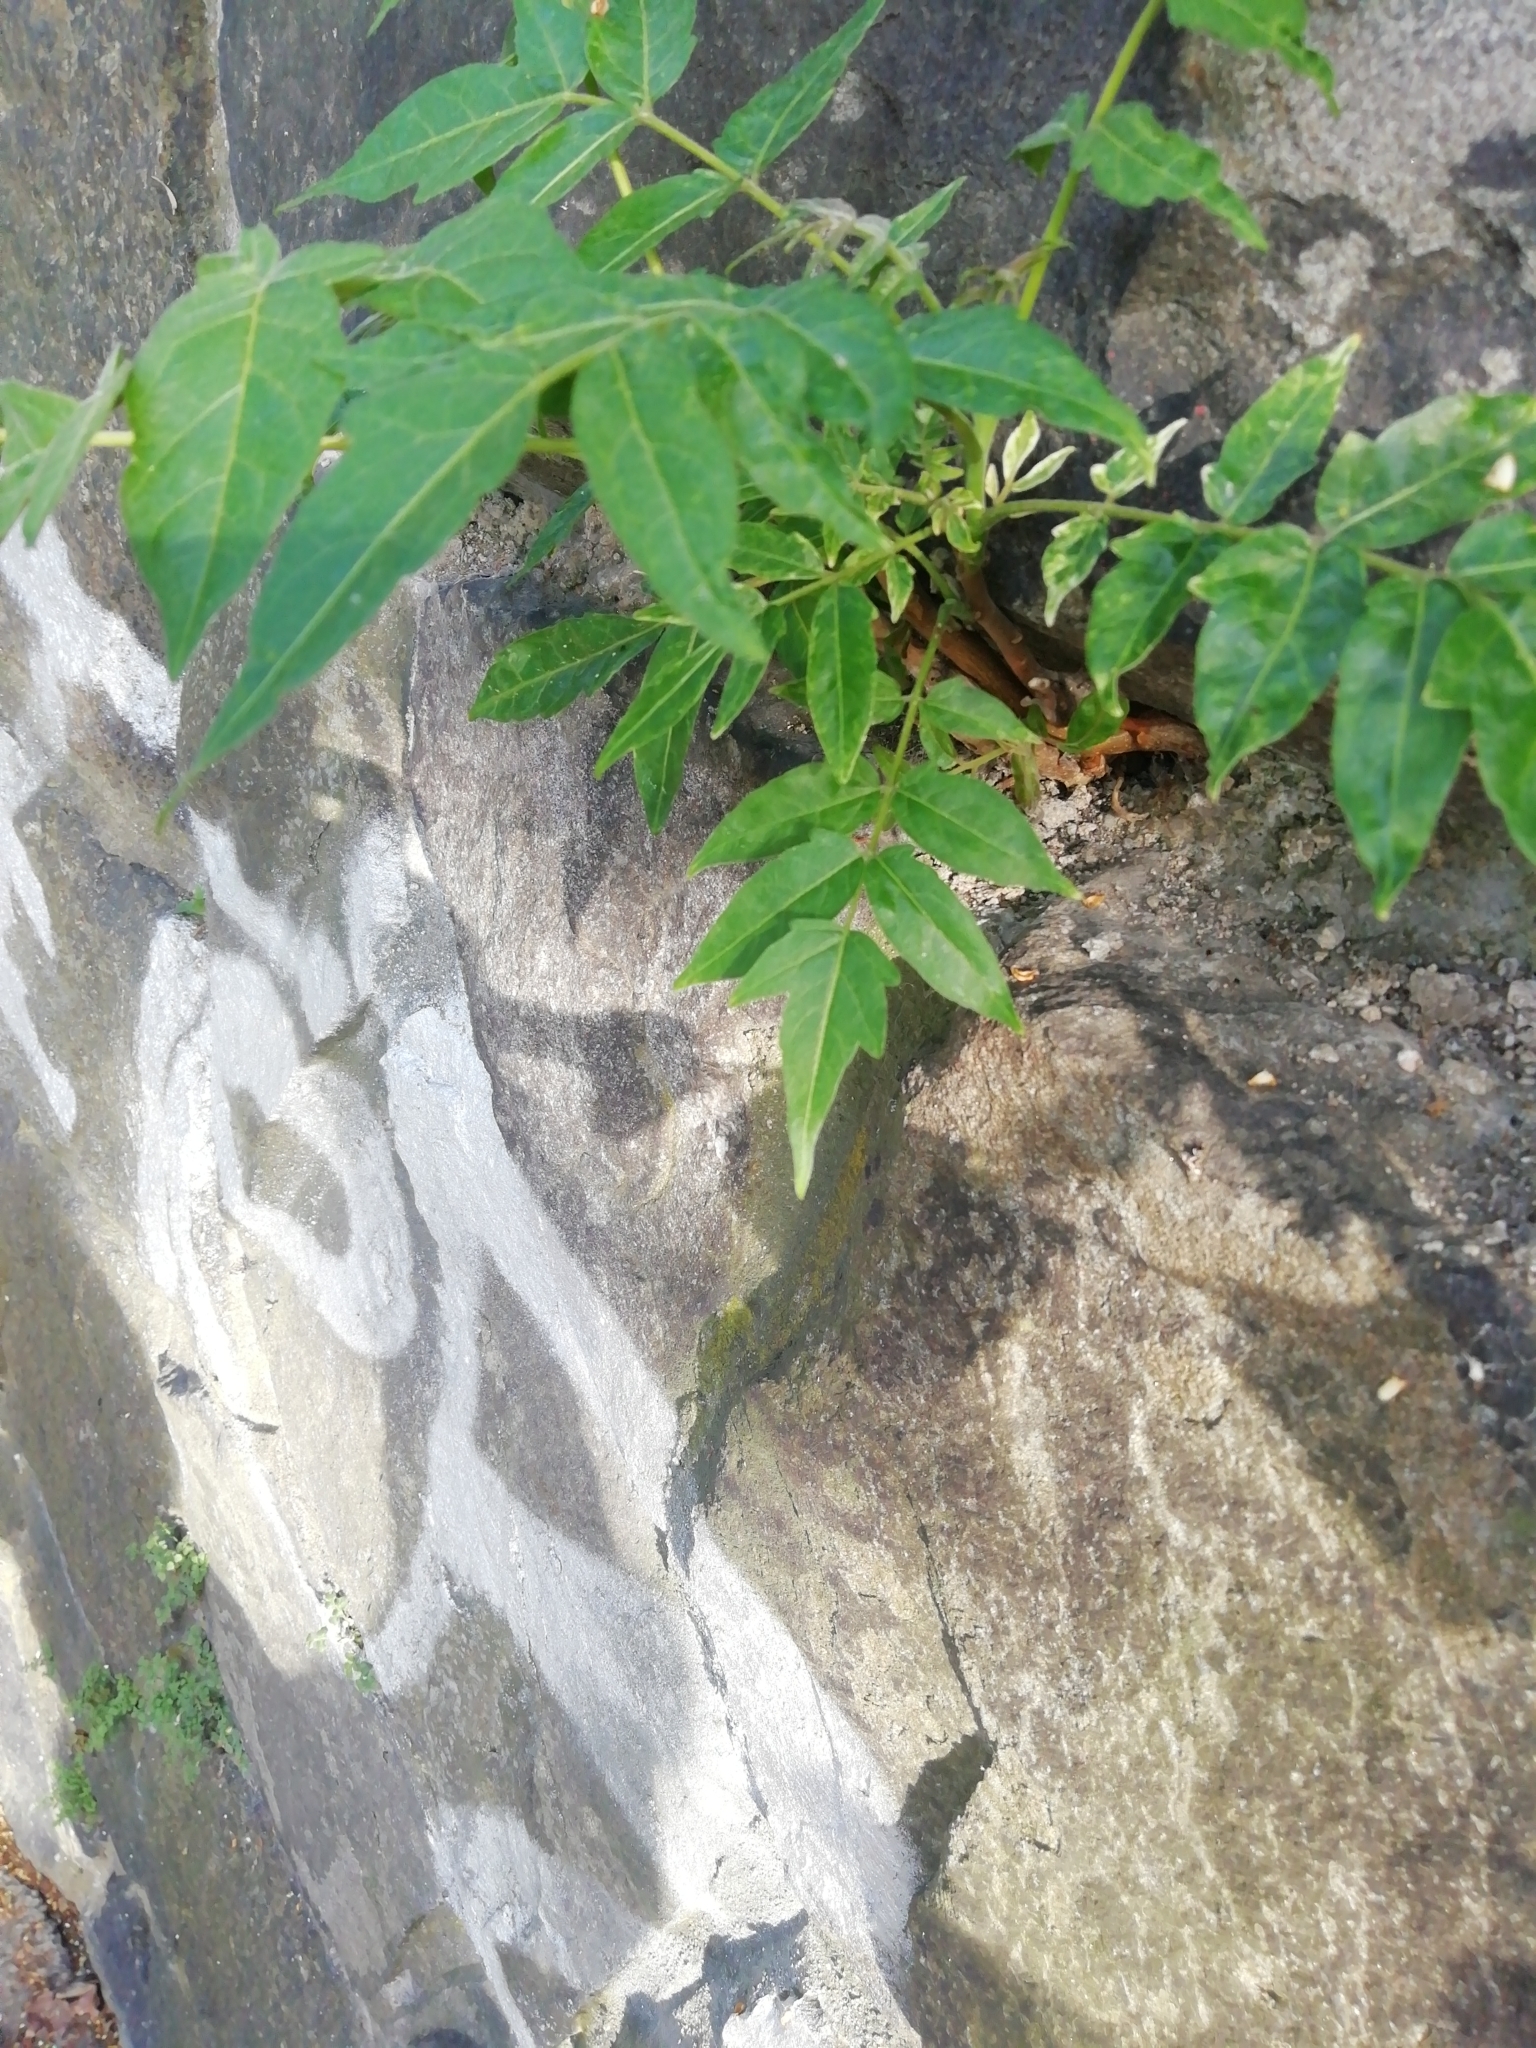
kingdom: Plantae
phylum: Tracheophyta
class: Magnoliopsida
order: Sapindales
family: Simaroubaceae
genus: Ailanthus
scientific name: Ailanthus altissima
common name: Tree-of-heaven
